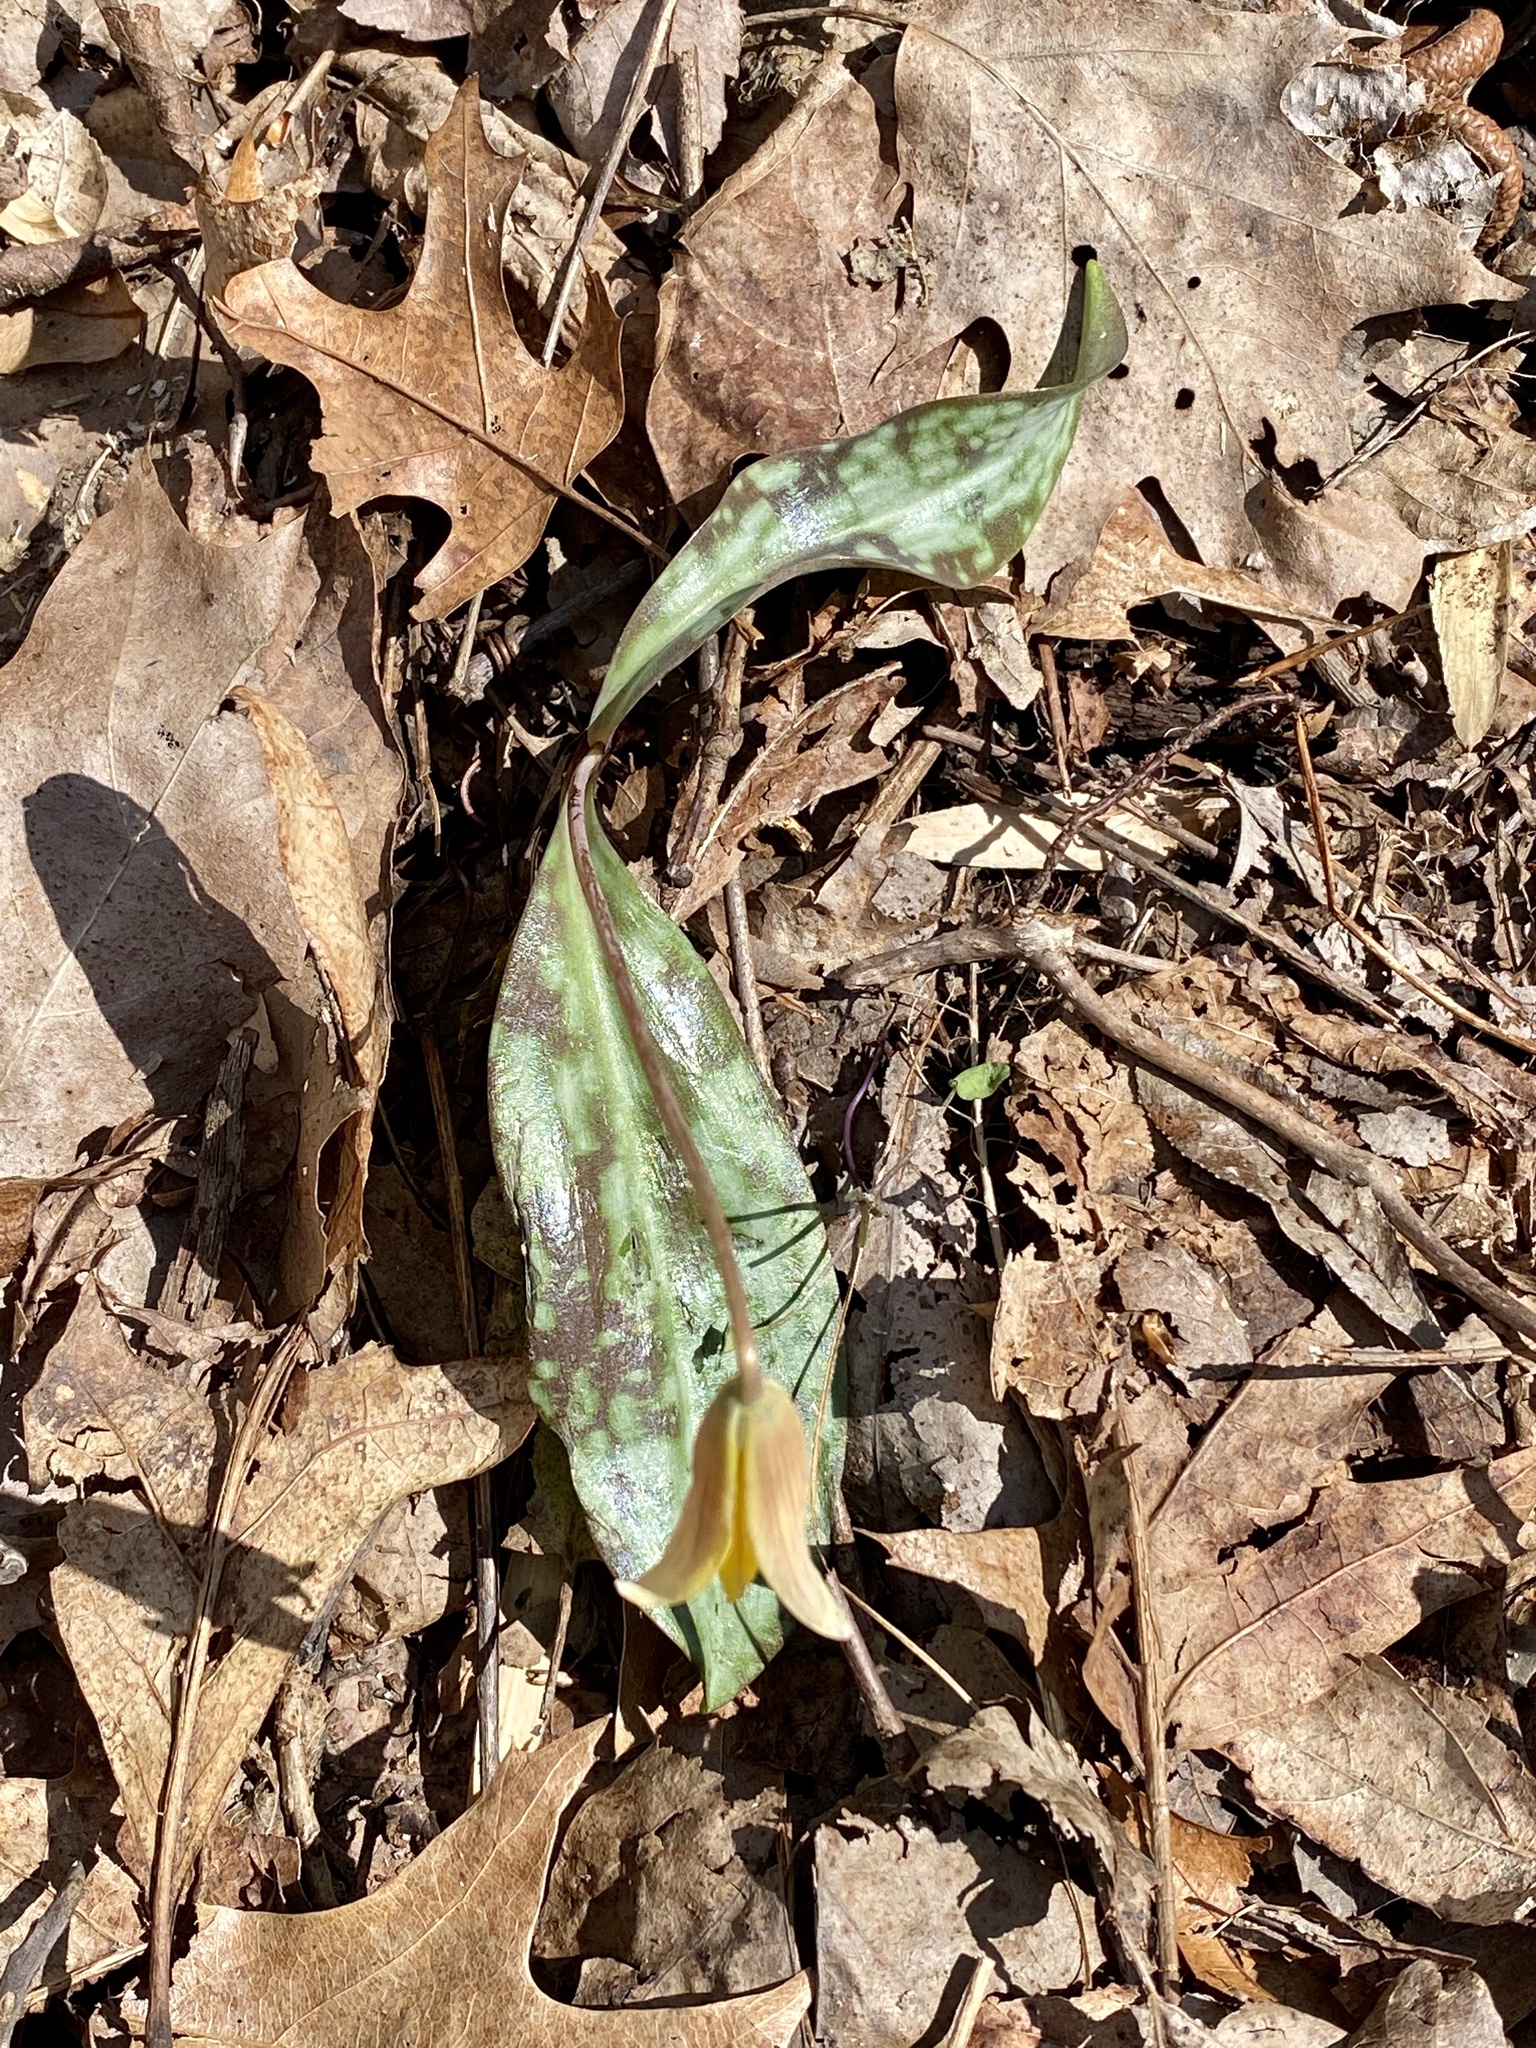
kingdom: Plantae
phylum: Tracheophyta
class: Liliopsida
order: Liliales
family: Liliaceae
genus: Erythronium
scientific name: Erythronium americanum
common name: Yellow adder's-tongue
